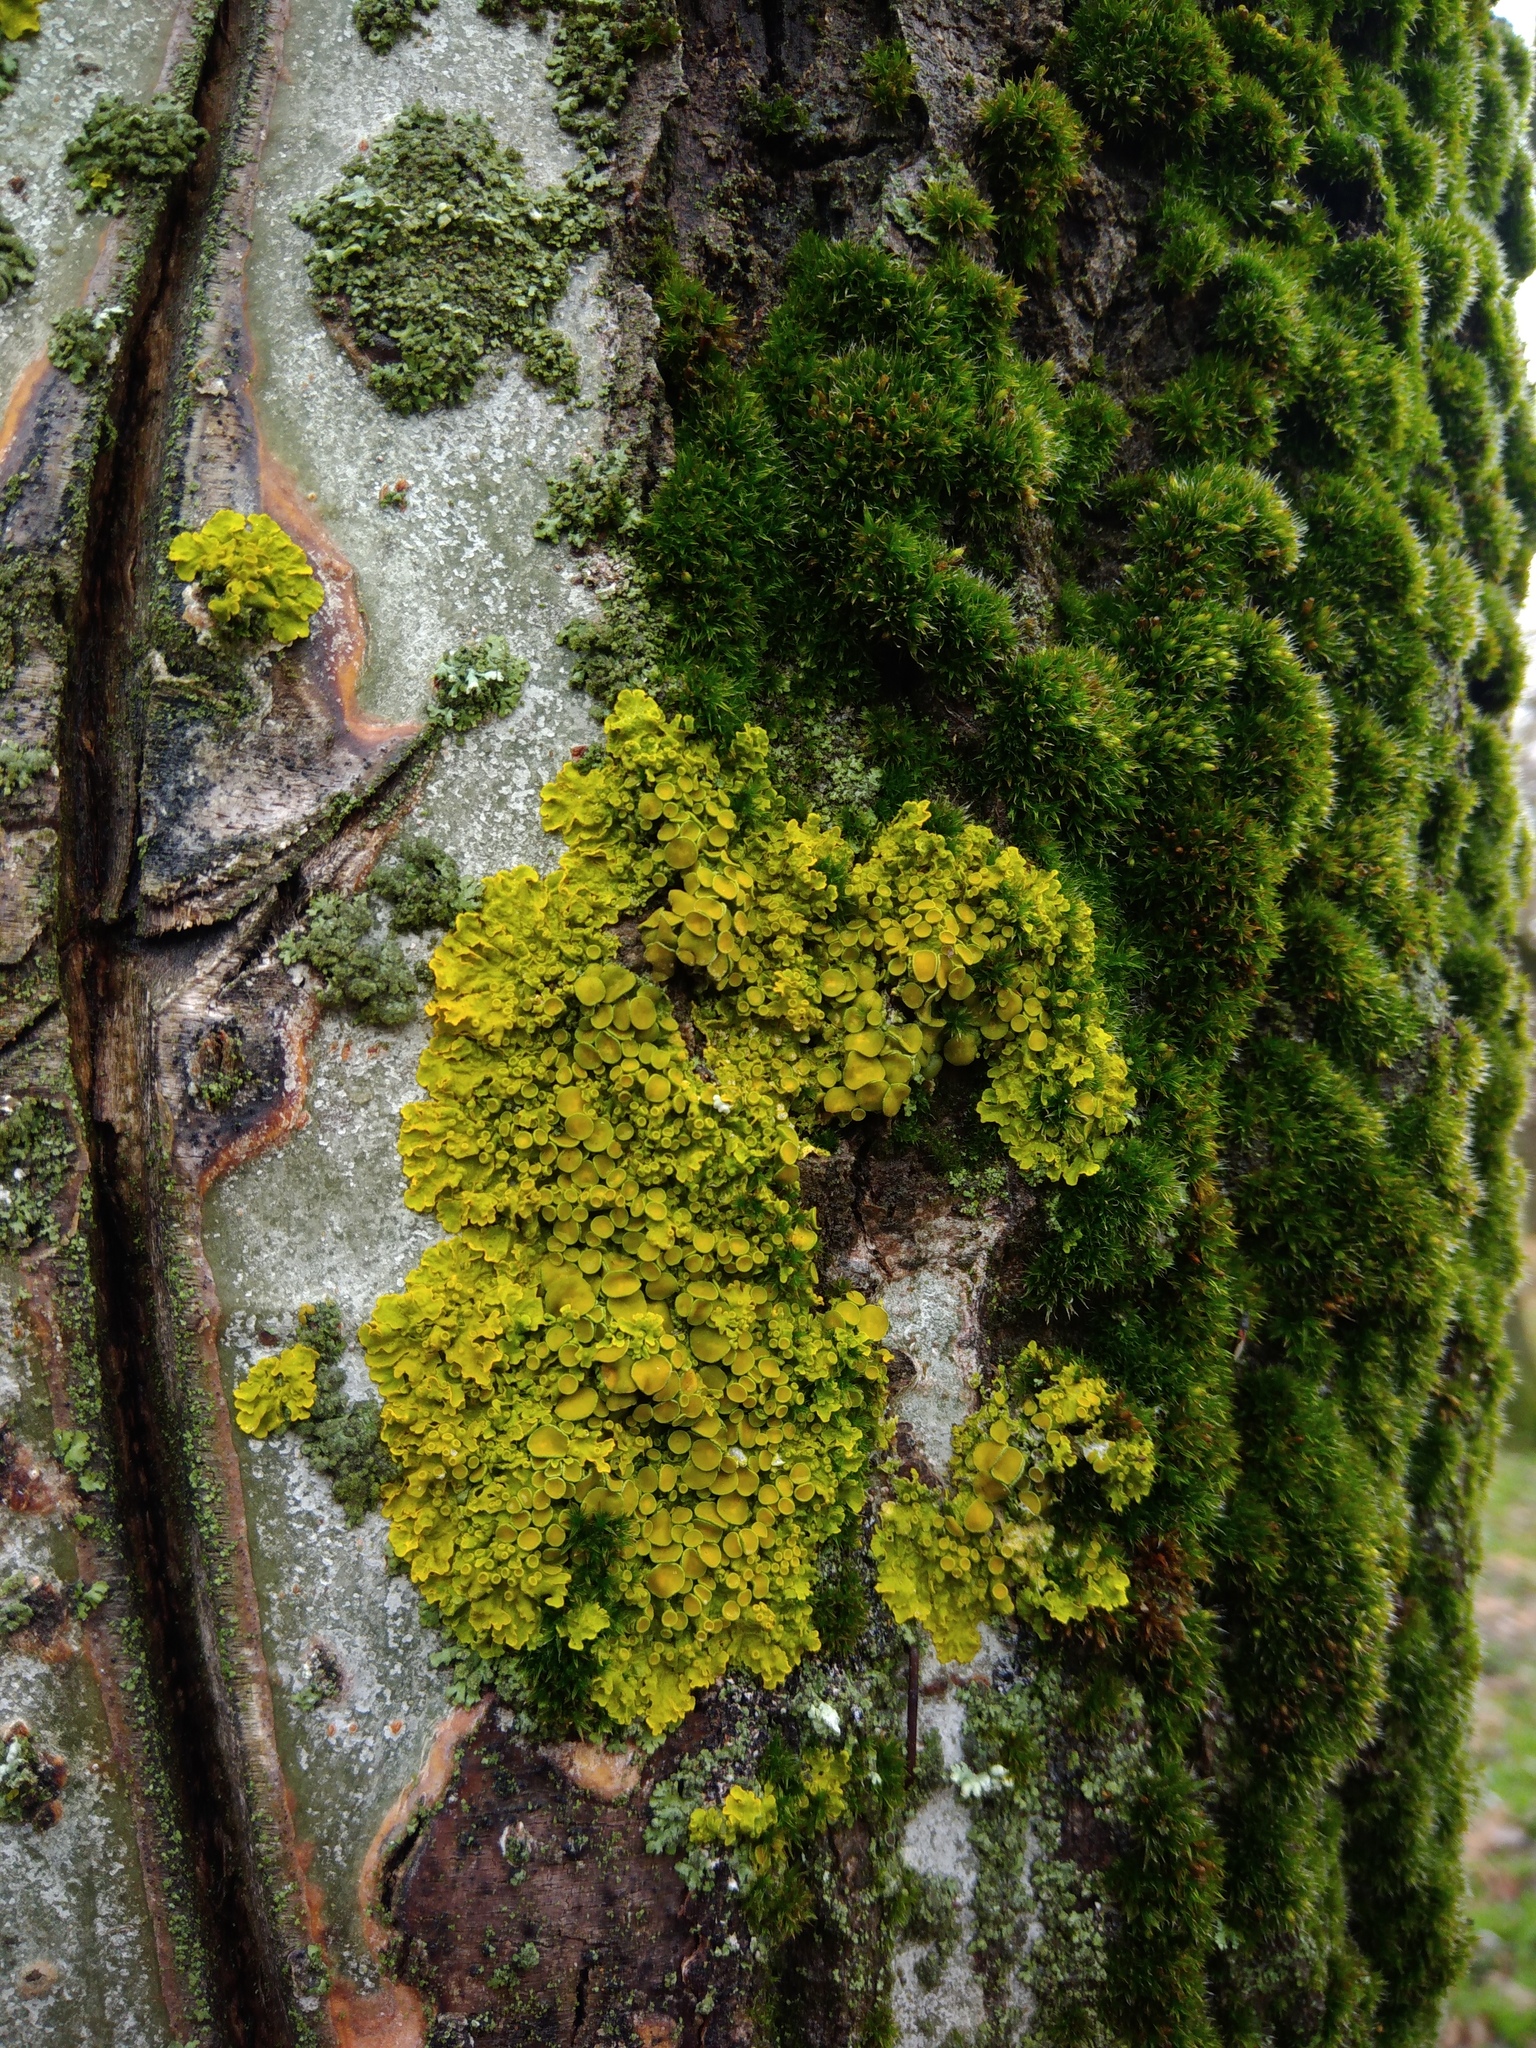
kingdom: Fungi
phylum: Ascomycota
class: Lecanoromycetes
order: Teloschistales
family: Teloschistaceae
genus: Xanthoria
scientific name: Xanthoria parietina
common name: Common orange lichen
